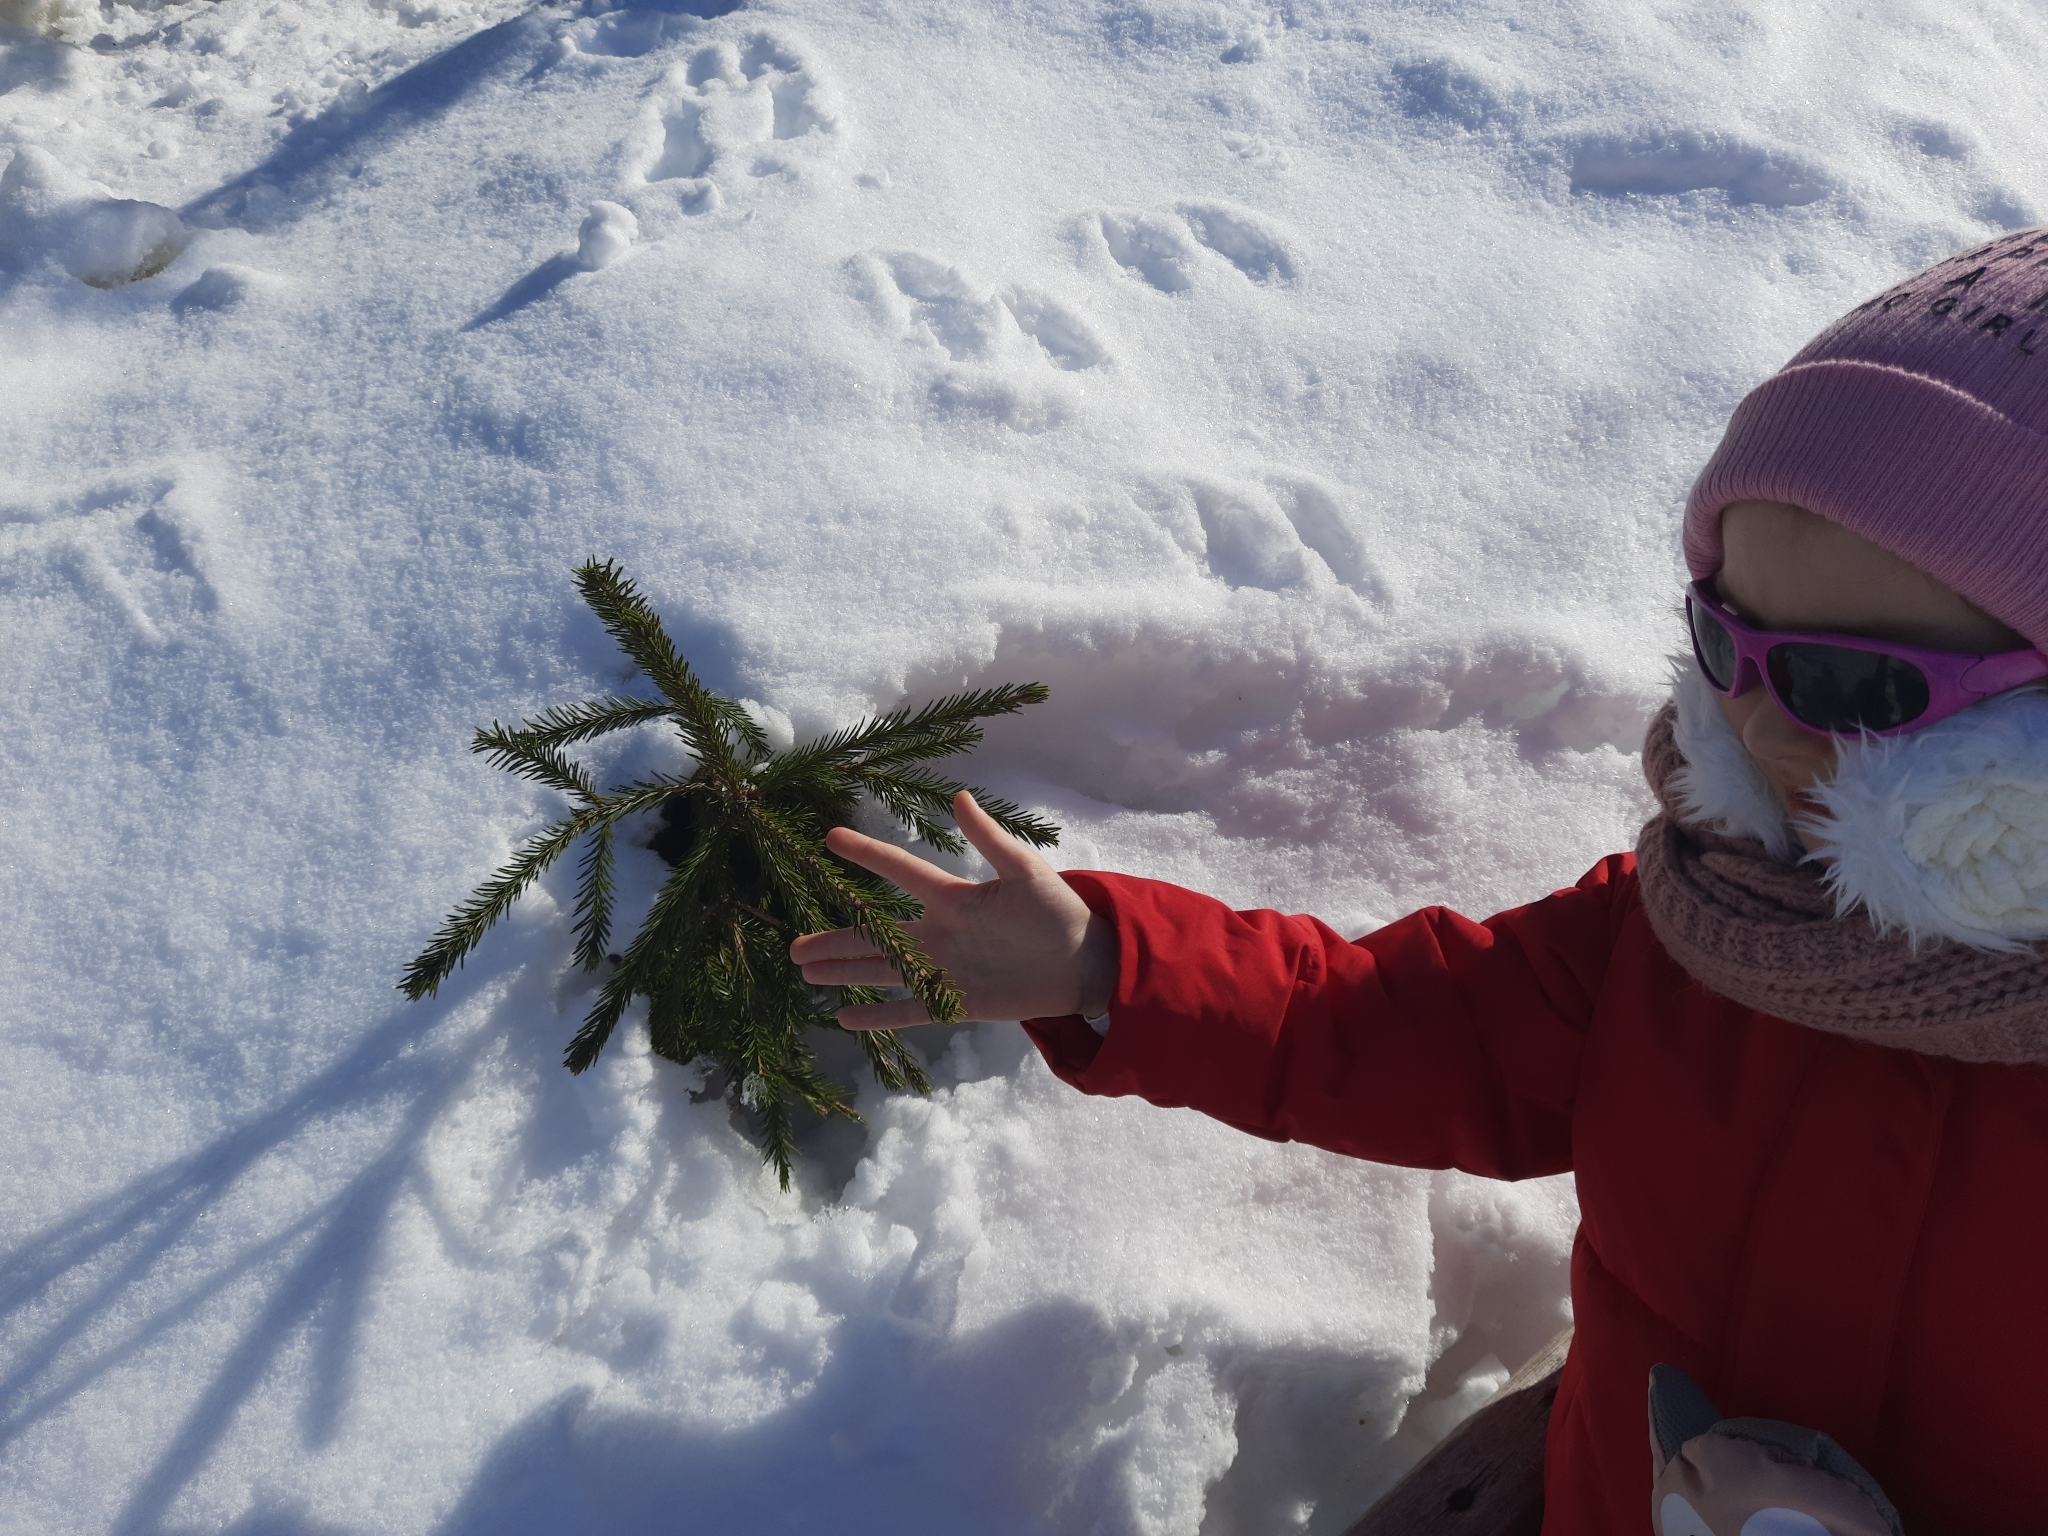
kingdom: Plantae
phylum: Tracheophyta
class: Pinopsida
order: Pinales
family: Pinaceae
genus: Picea
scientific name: Picea obovata
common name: Siberian spruce
